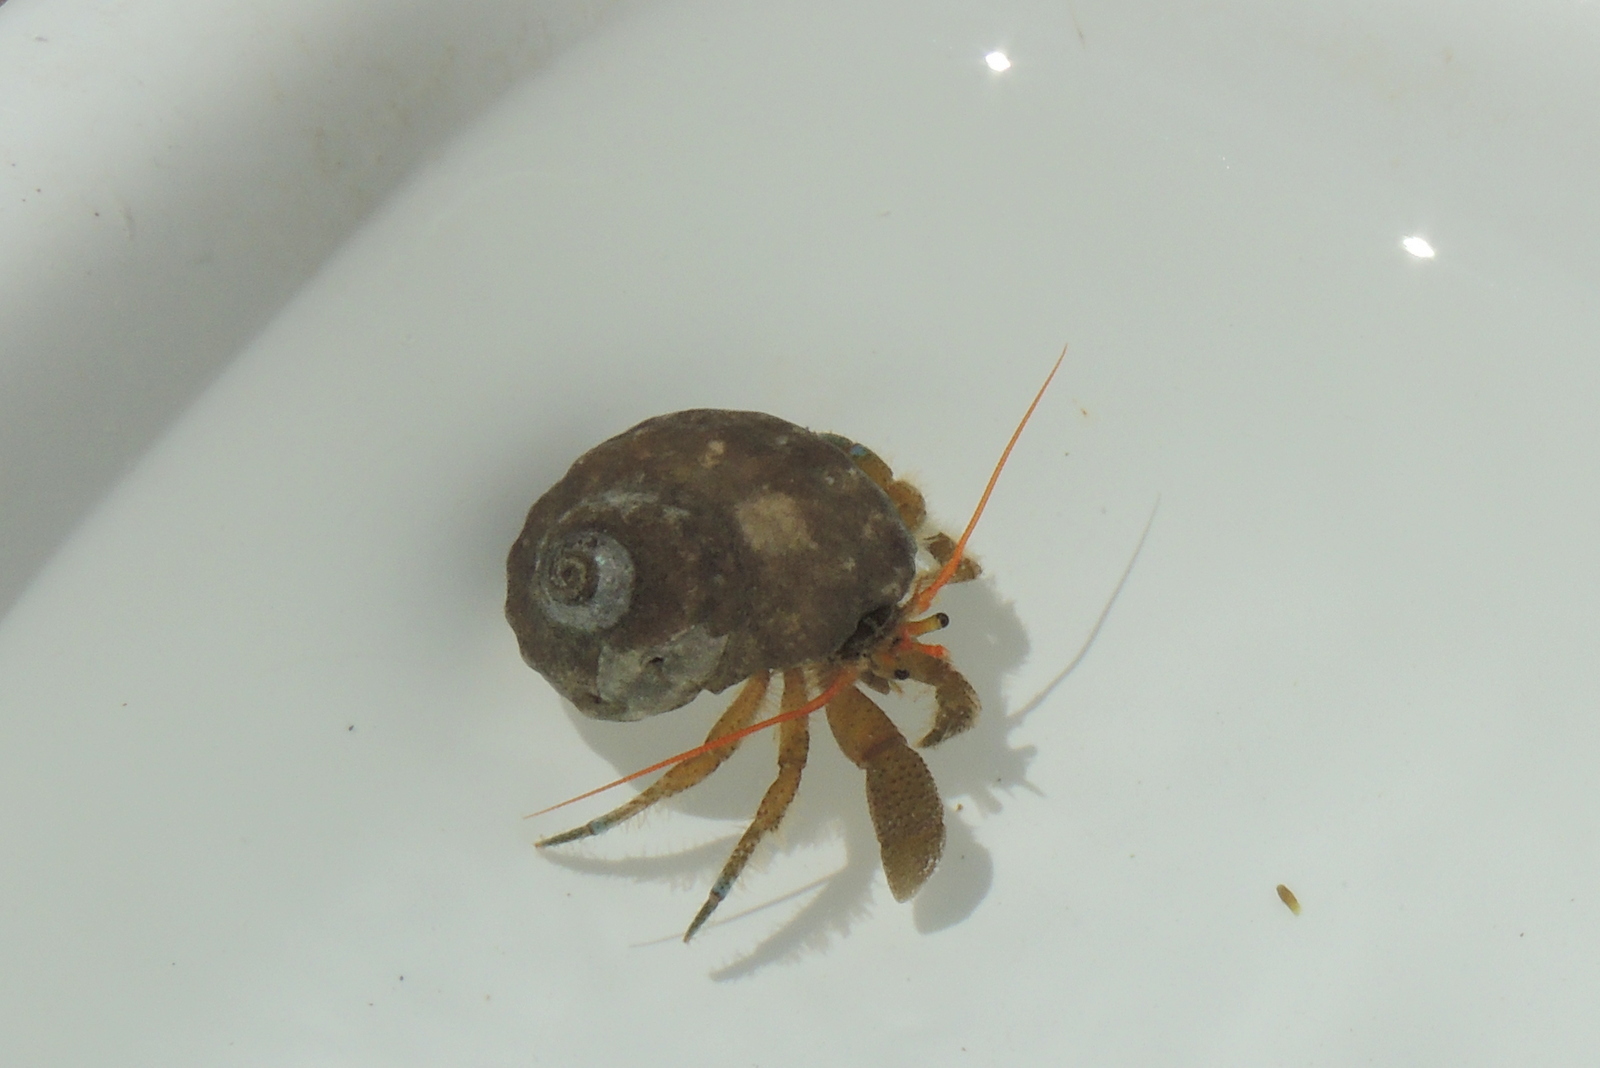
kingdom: Animalia
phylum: Arthropoda
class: Malacostraca
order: Decapoda
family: Paguridae
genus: Pagurus
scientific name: Pagurus samuelis
